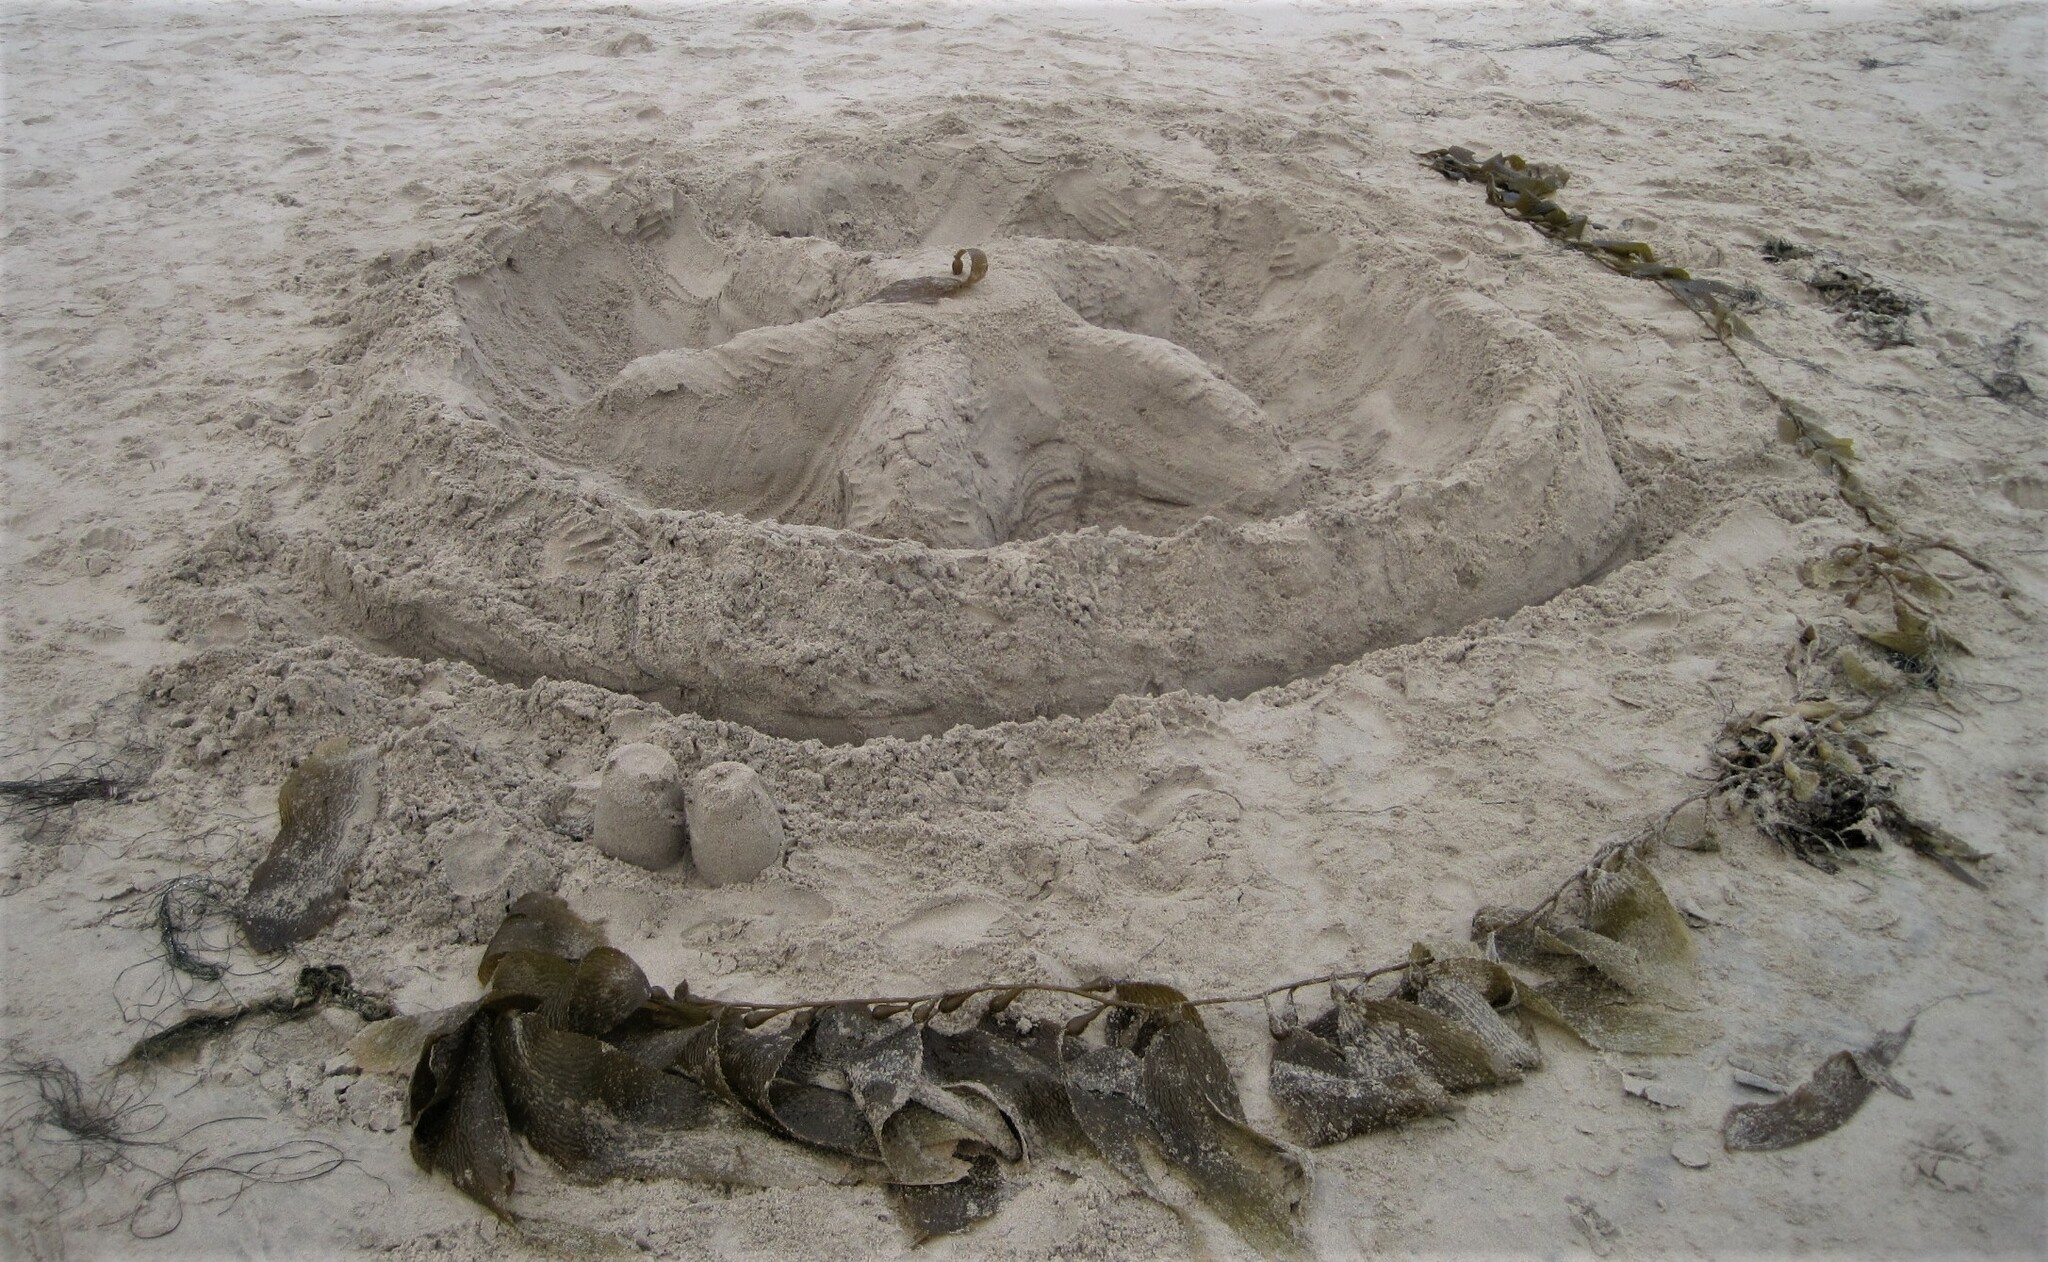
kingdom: Chromista
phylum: Ochrophyta
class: Phaeophyceae
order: Laminariales
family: Laminariaceae
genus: Macrocystis
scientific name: Macrocystis pyrifera
